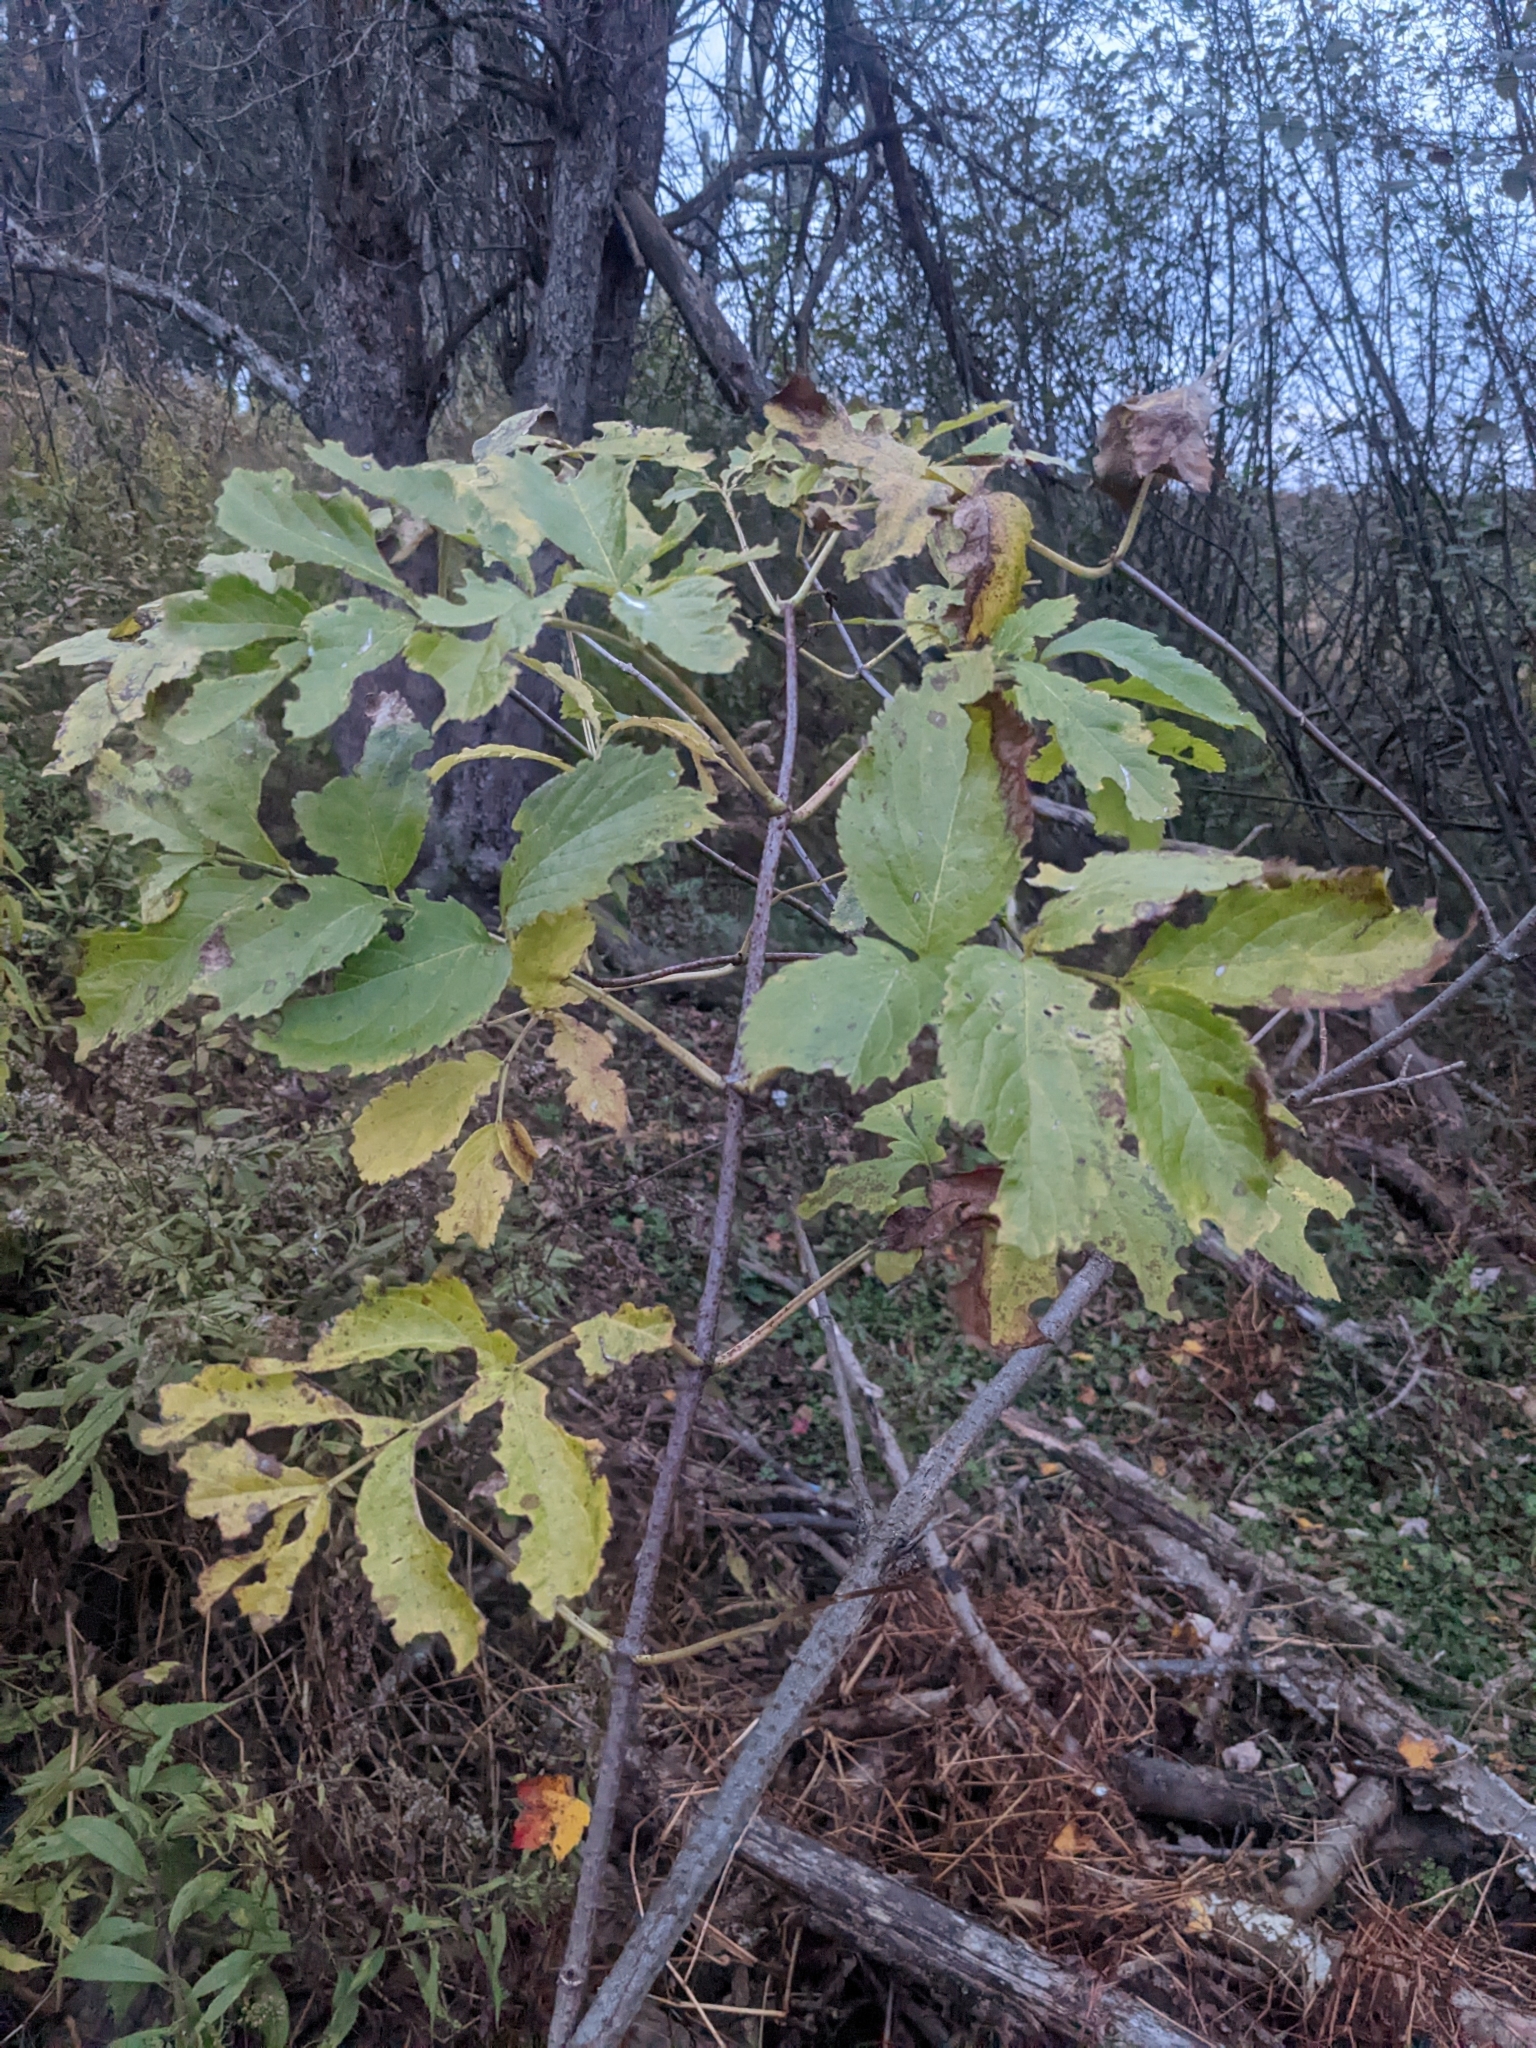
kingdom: Plantae
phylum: Tracheophyta
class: Magnoliopsida
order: Dipsacales
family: Viburnaceae
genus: Sambucus
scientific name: Sambucus canadensis
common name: American elder
